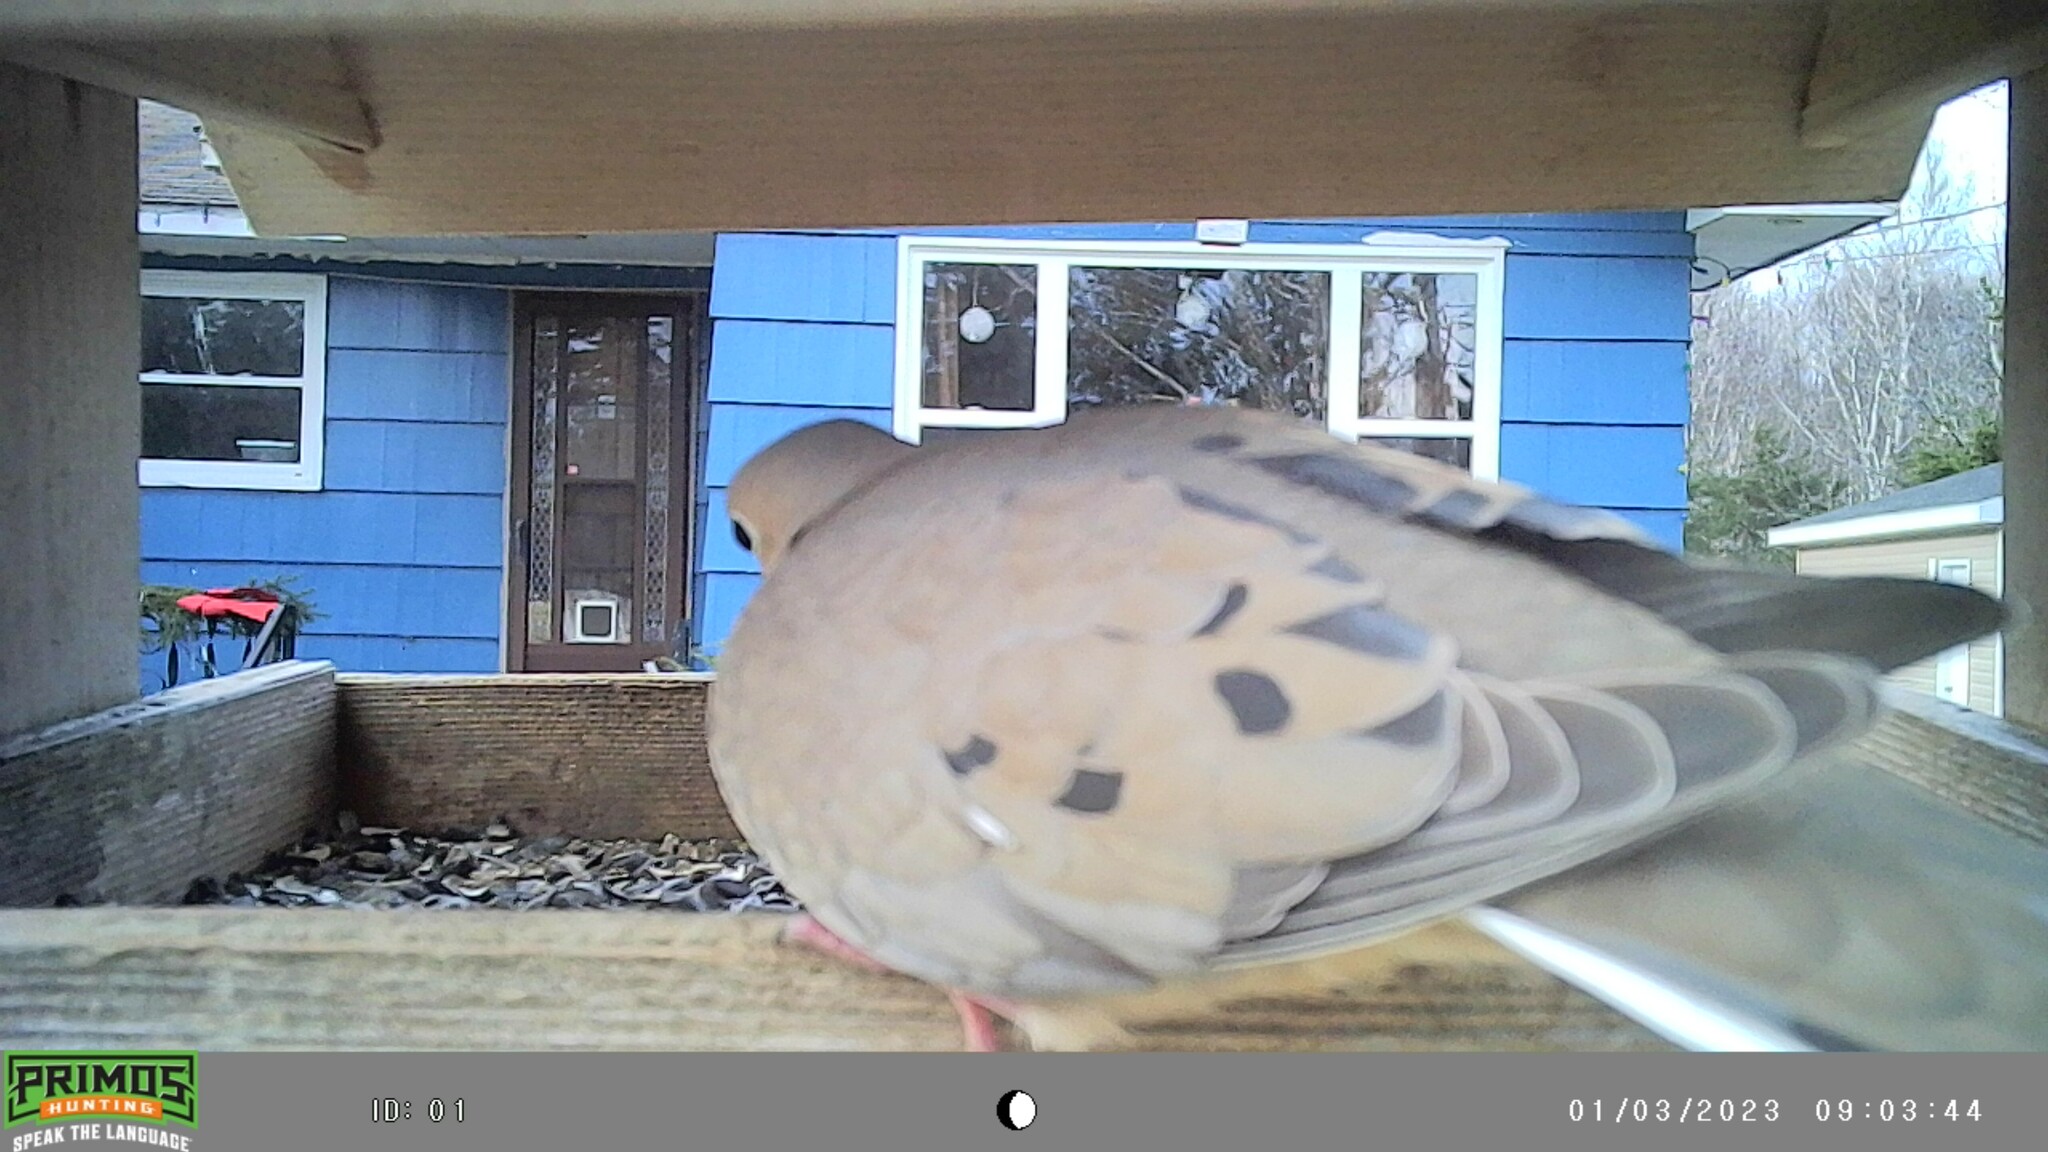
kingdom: Animalia
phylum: Chordata
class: Aves
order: Columbiformes
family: Columbidae
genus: Zenaida
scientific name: Zenaida macroura
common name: Mourning dove
